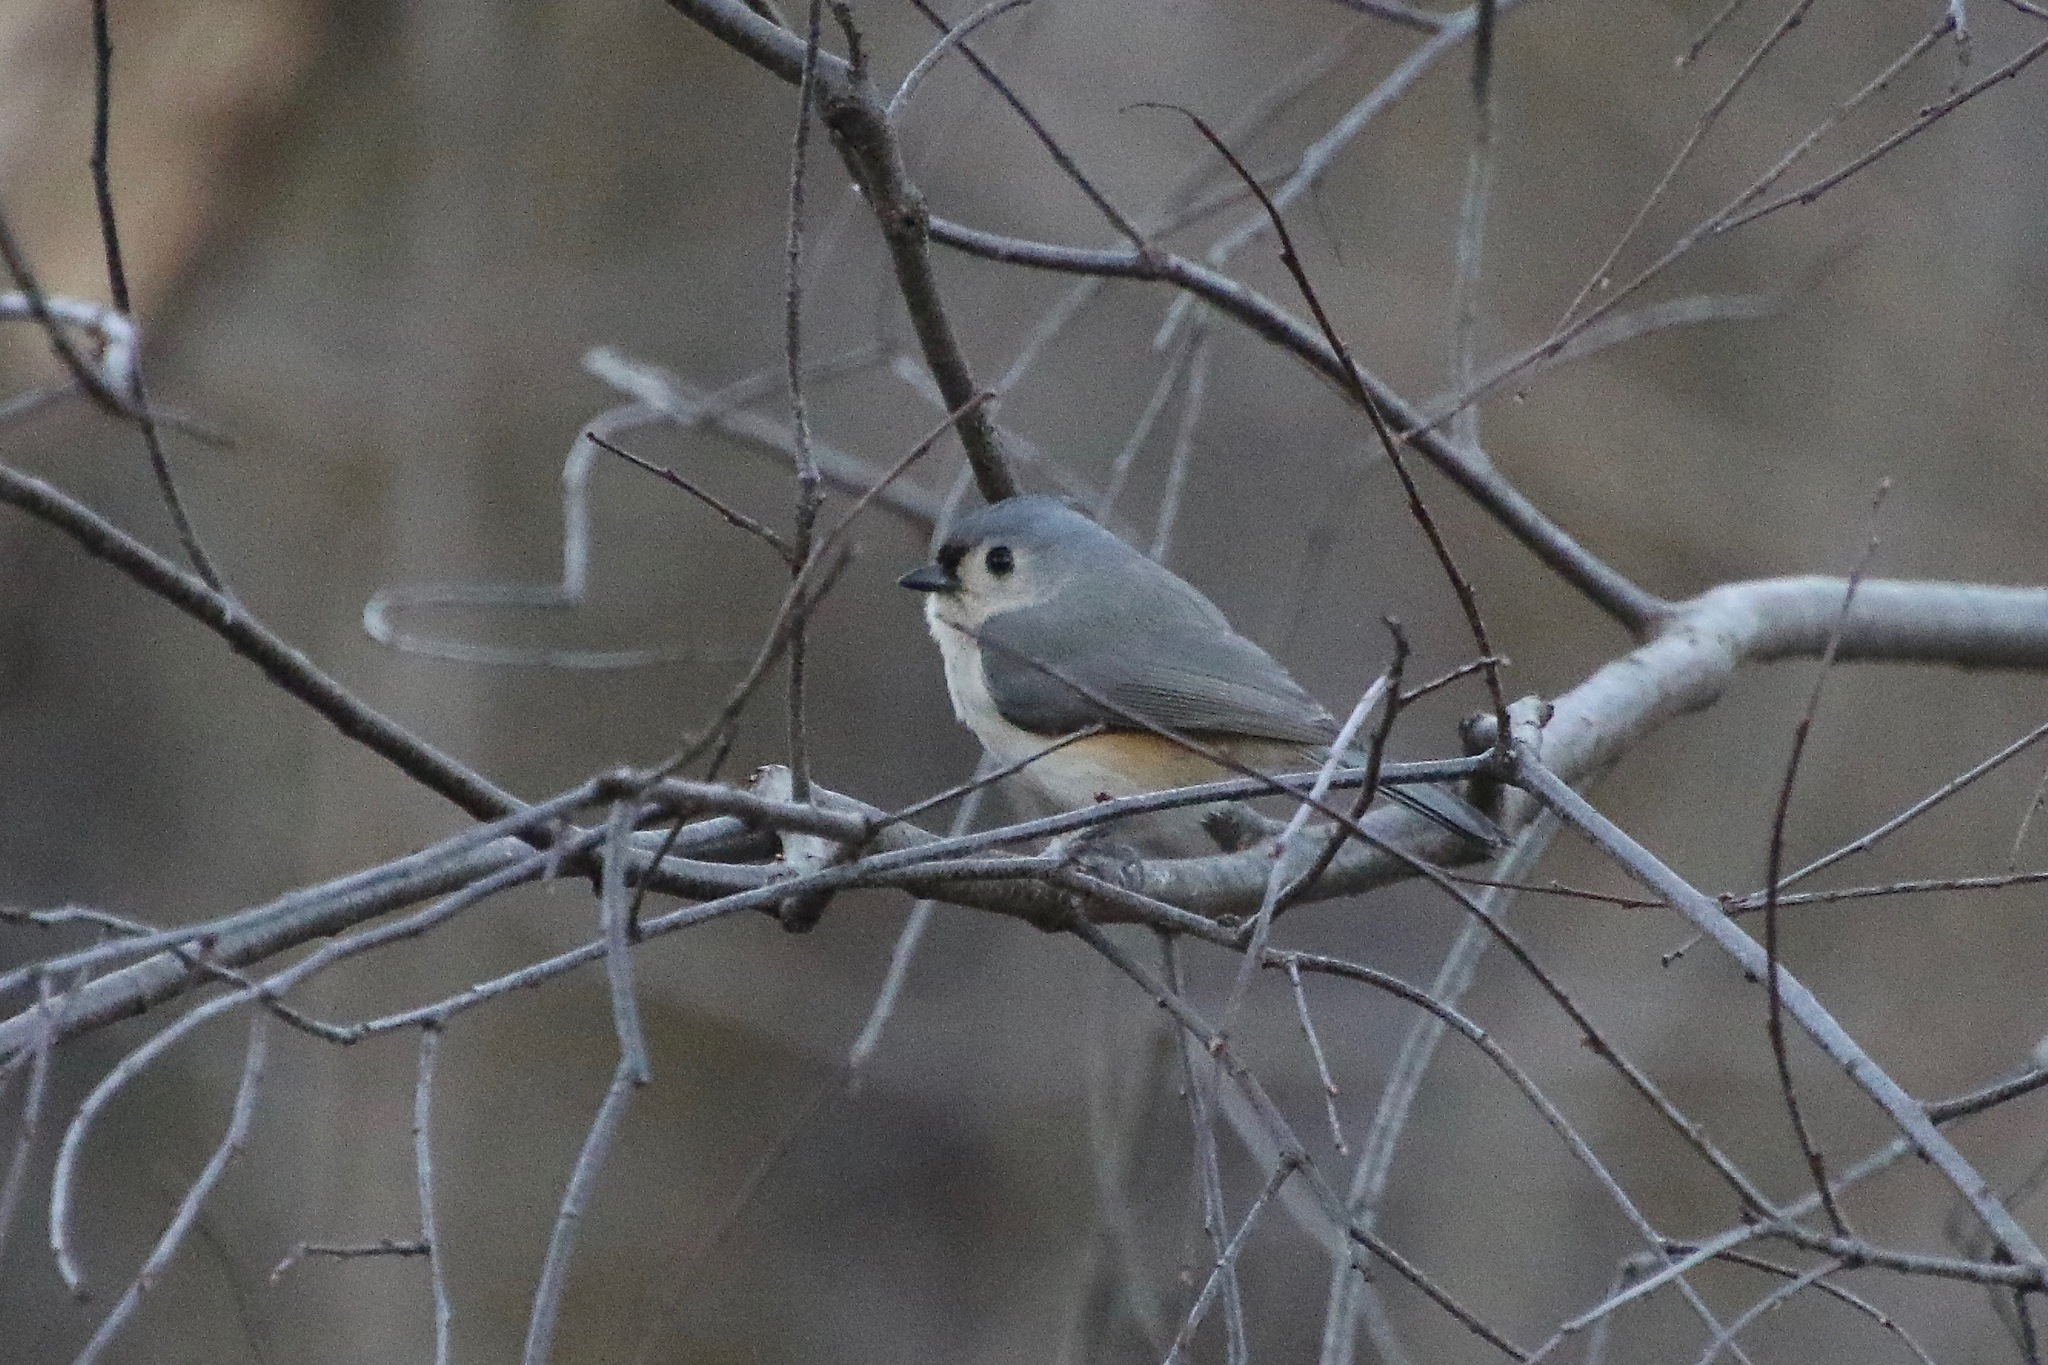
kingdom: Animalia
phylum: Chordata
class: Aves
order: Passeriformes
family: Paridae
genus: Baeolophus
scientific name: Baeolophus bicolor
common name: Tufted titmouse
